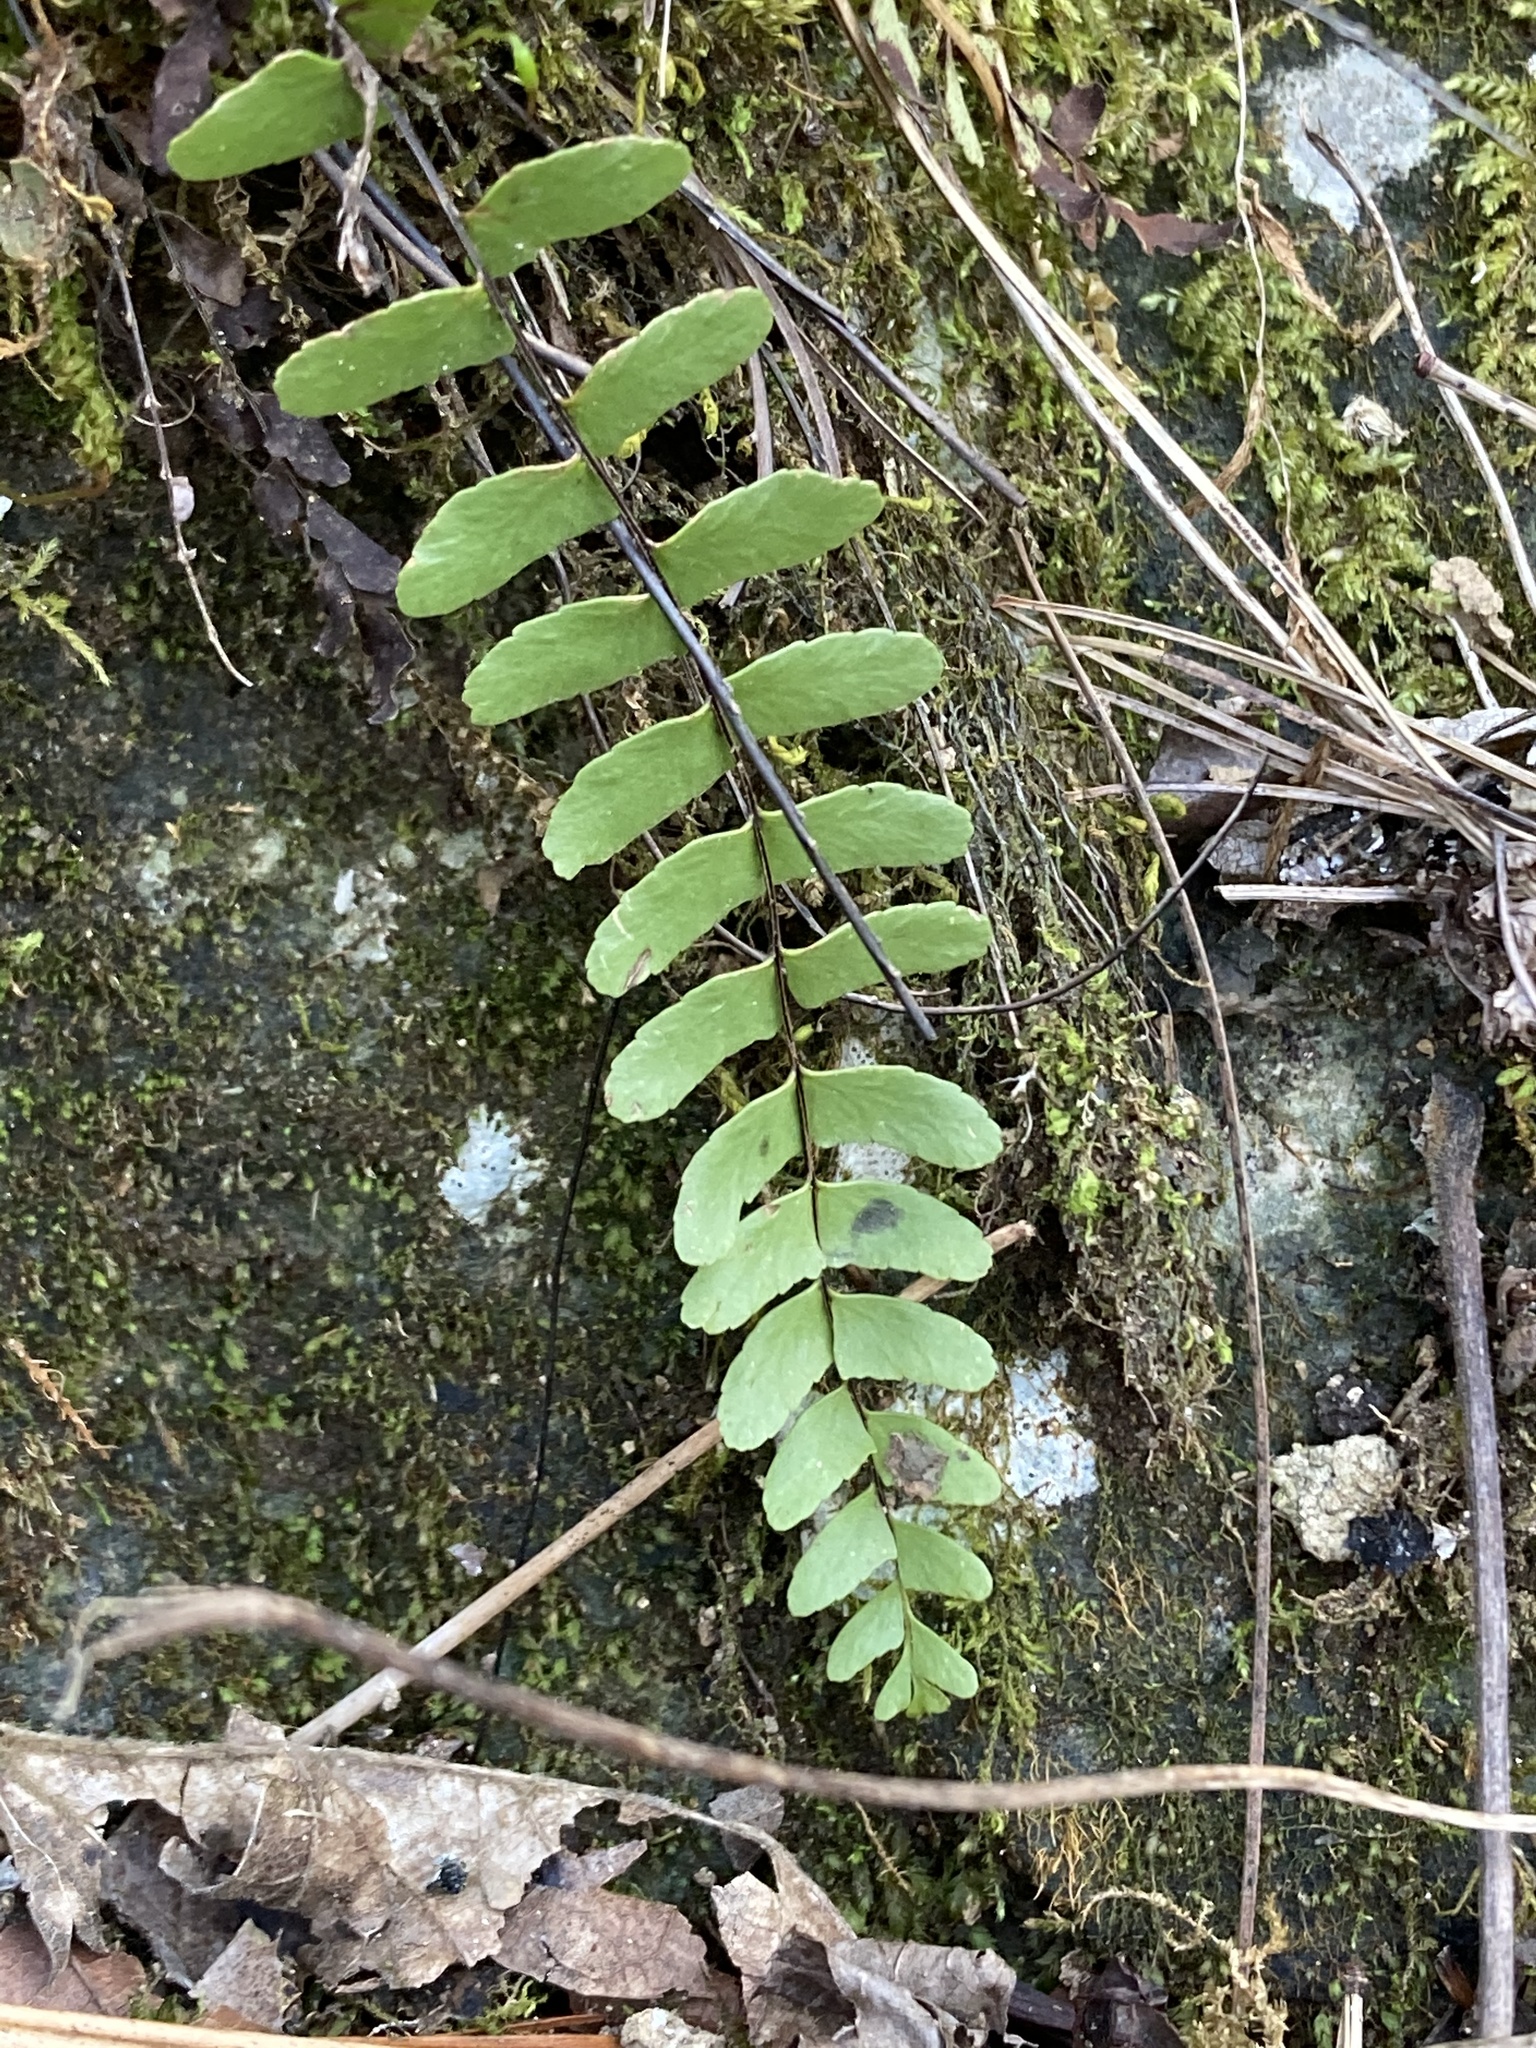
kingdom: Plantae
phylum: Tracheophyta
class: Polypodiopsida
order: Polypodiales
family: Aspleniaceae
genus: Asplenium
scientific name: Asplenium resiliens
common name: Blackstem spleenwort
